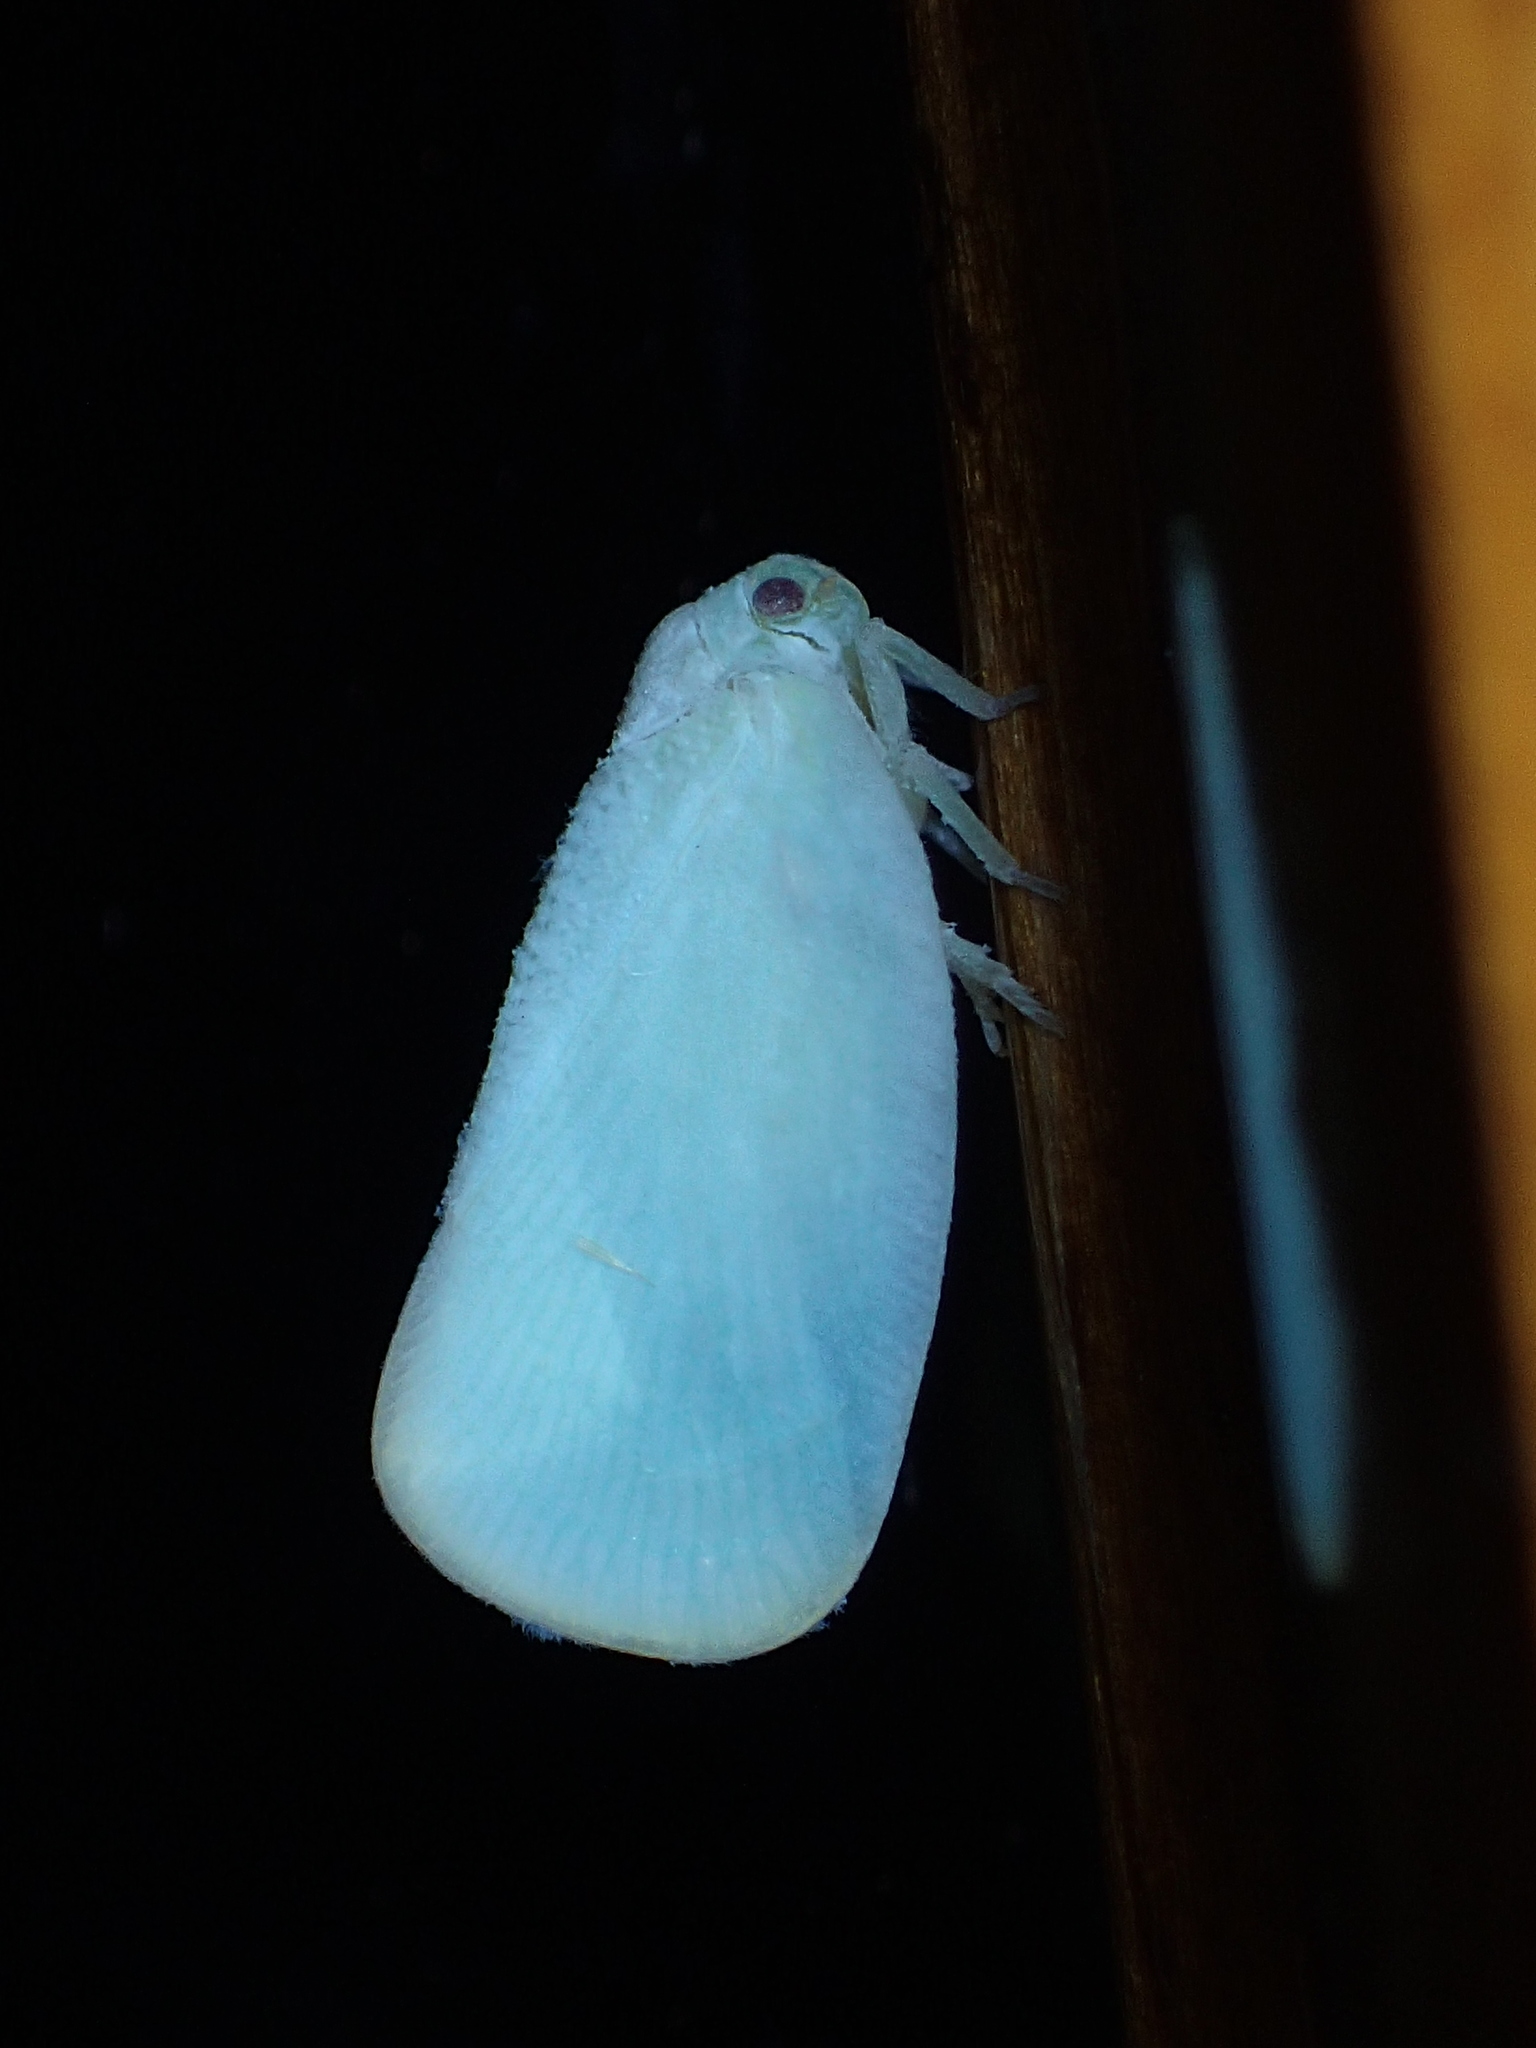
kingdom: Animalia
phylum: Arthropoda
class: Insecta
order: Hemiptera
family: Flatidae
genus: Ormenoides
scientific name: Ormenoides venusta
